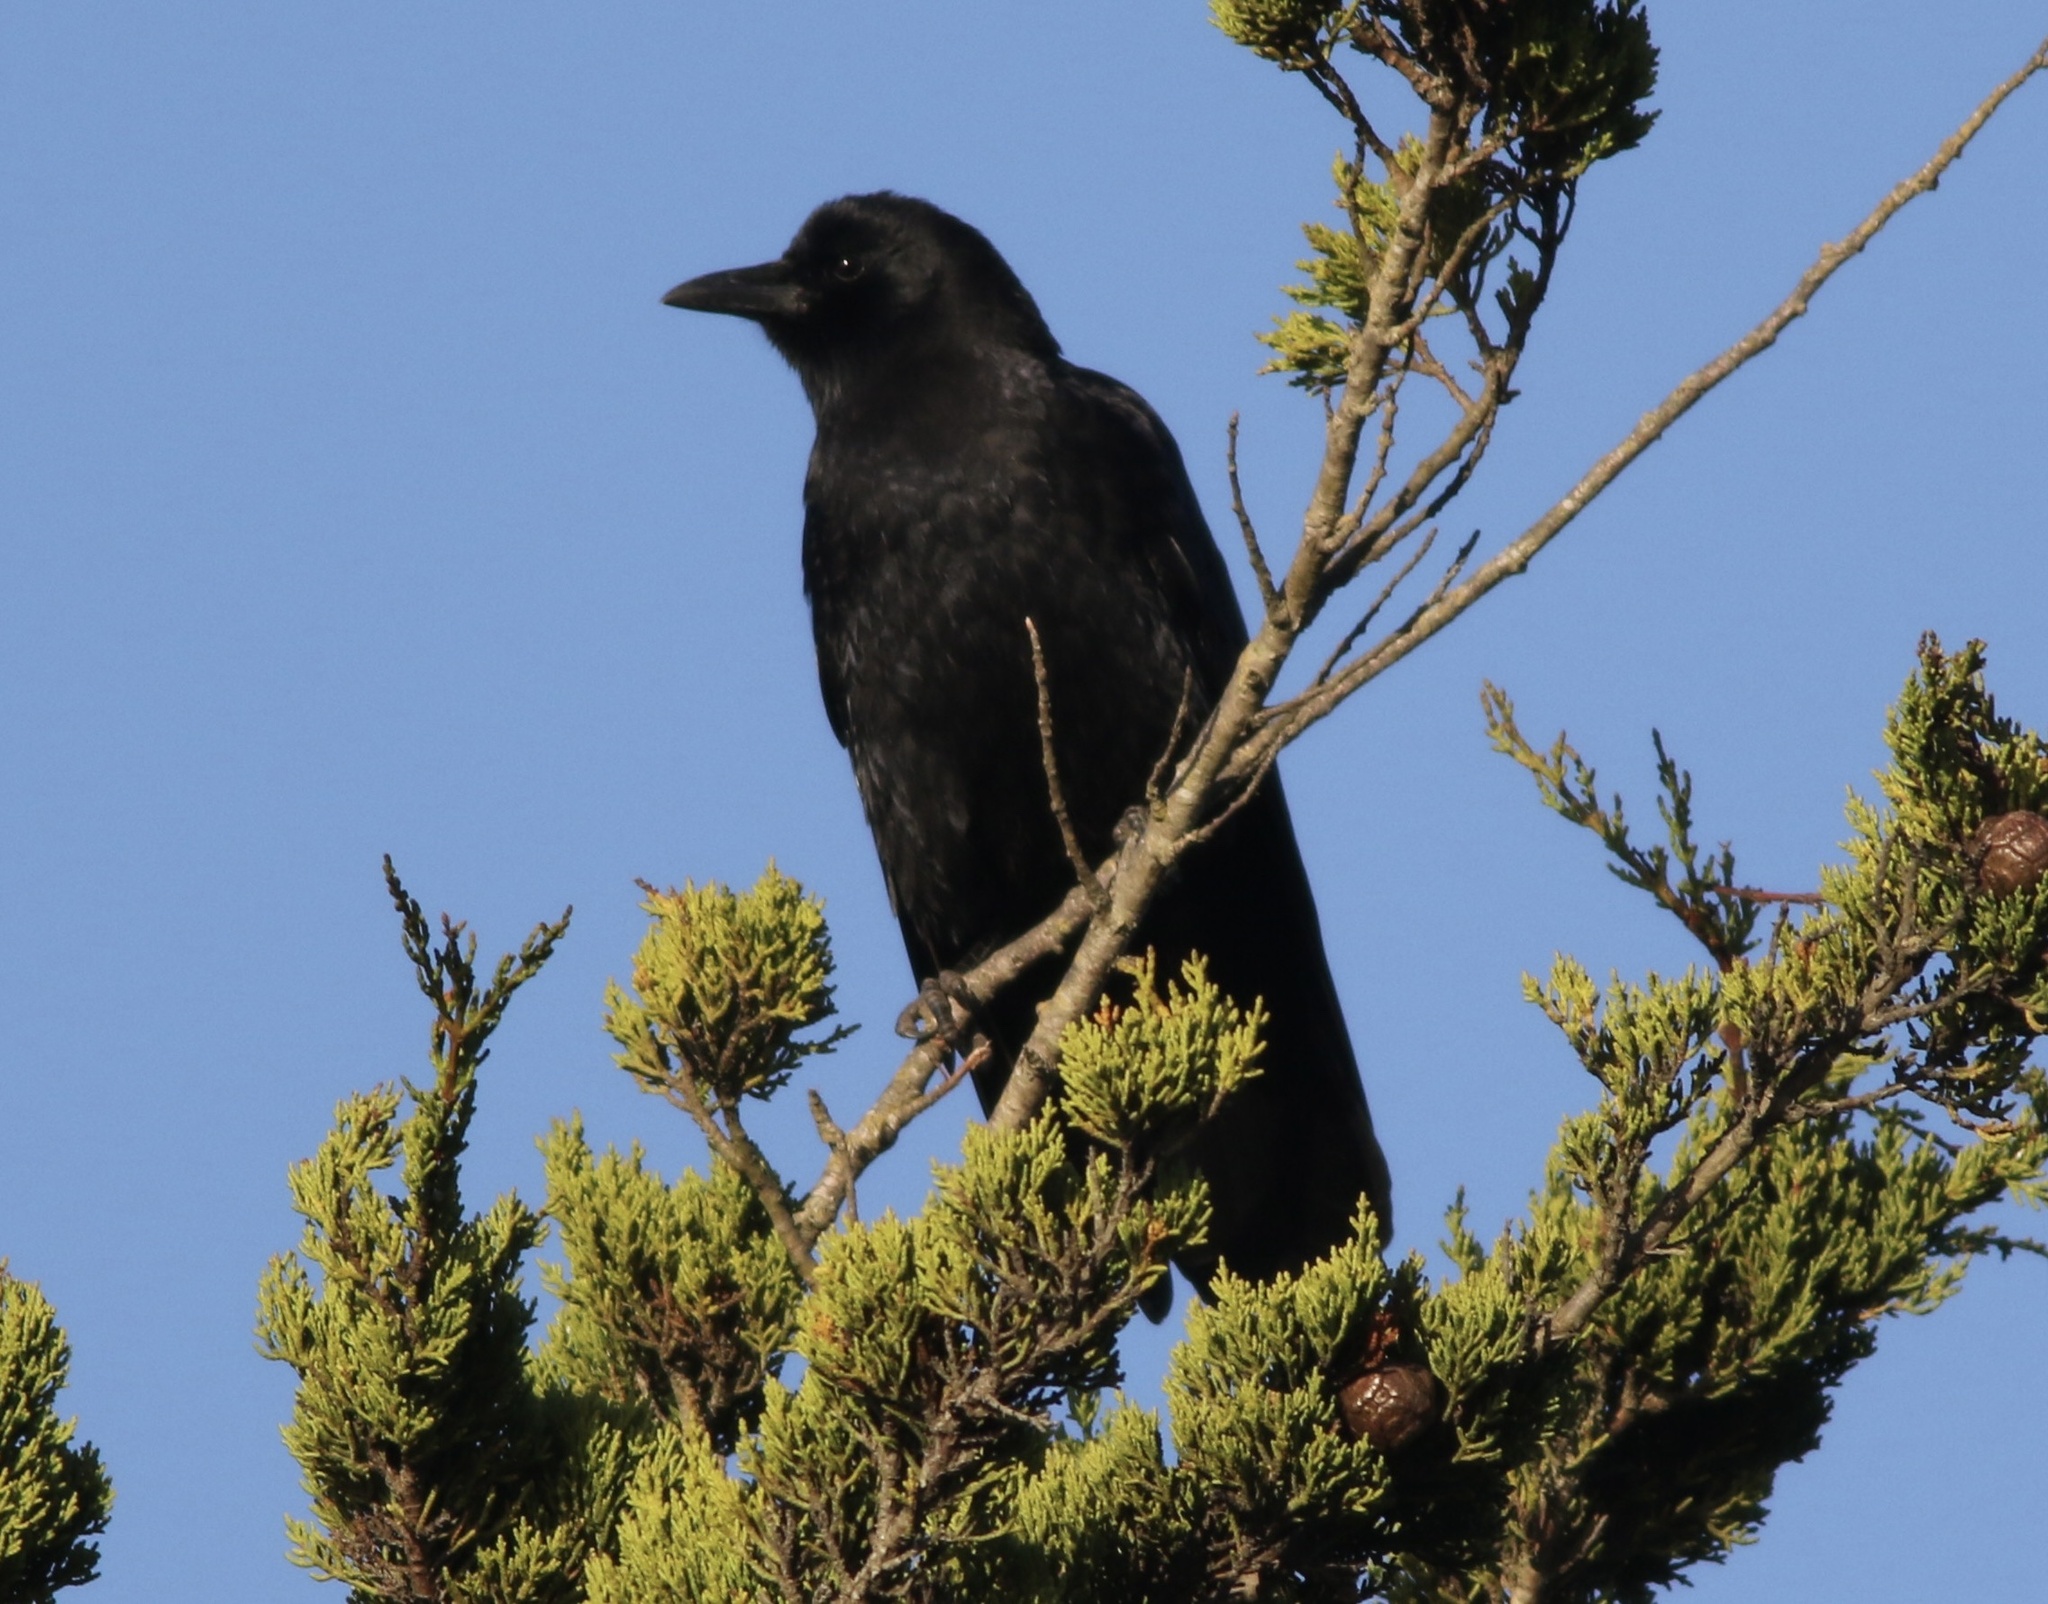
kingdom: Animalia
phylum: Chordata
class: Aves
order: Passeriformes
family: Corvidae
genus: Corvus
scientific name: Corvus brachyrhynchos
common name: American crow
